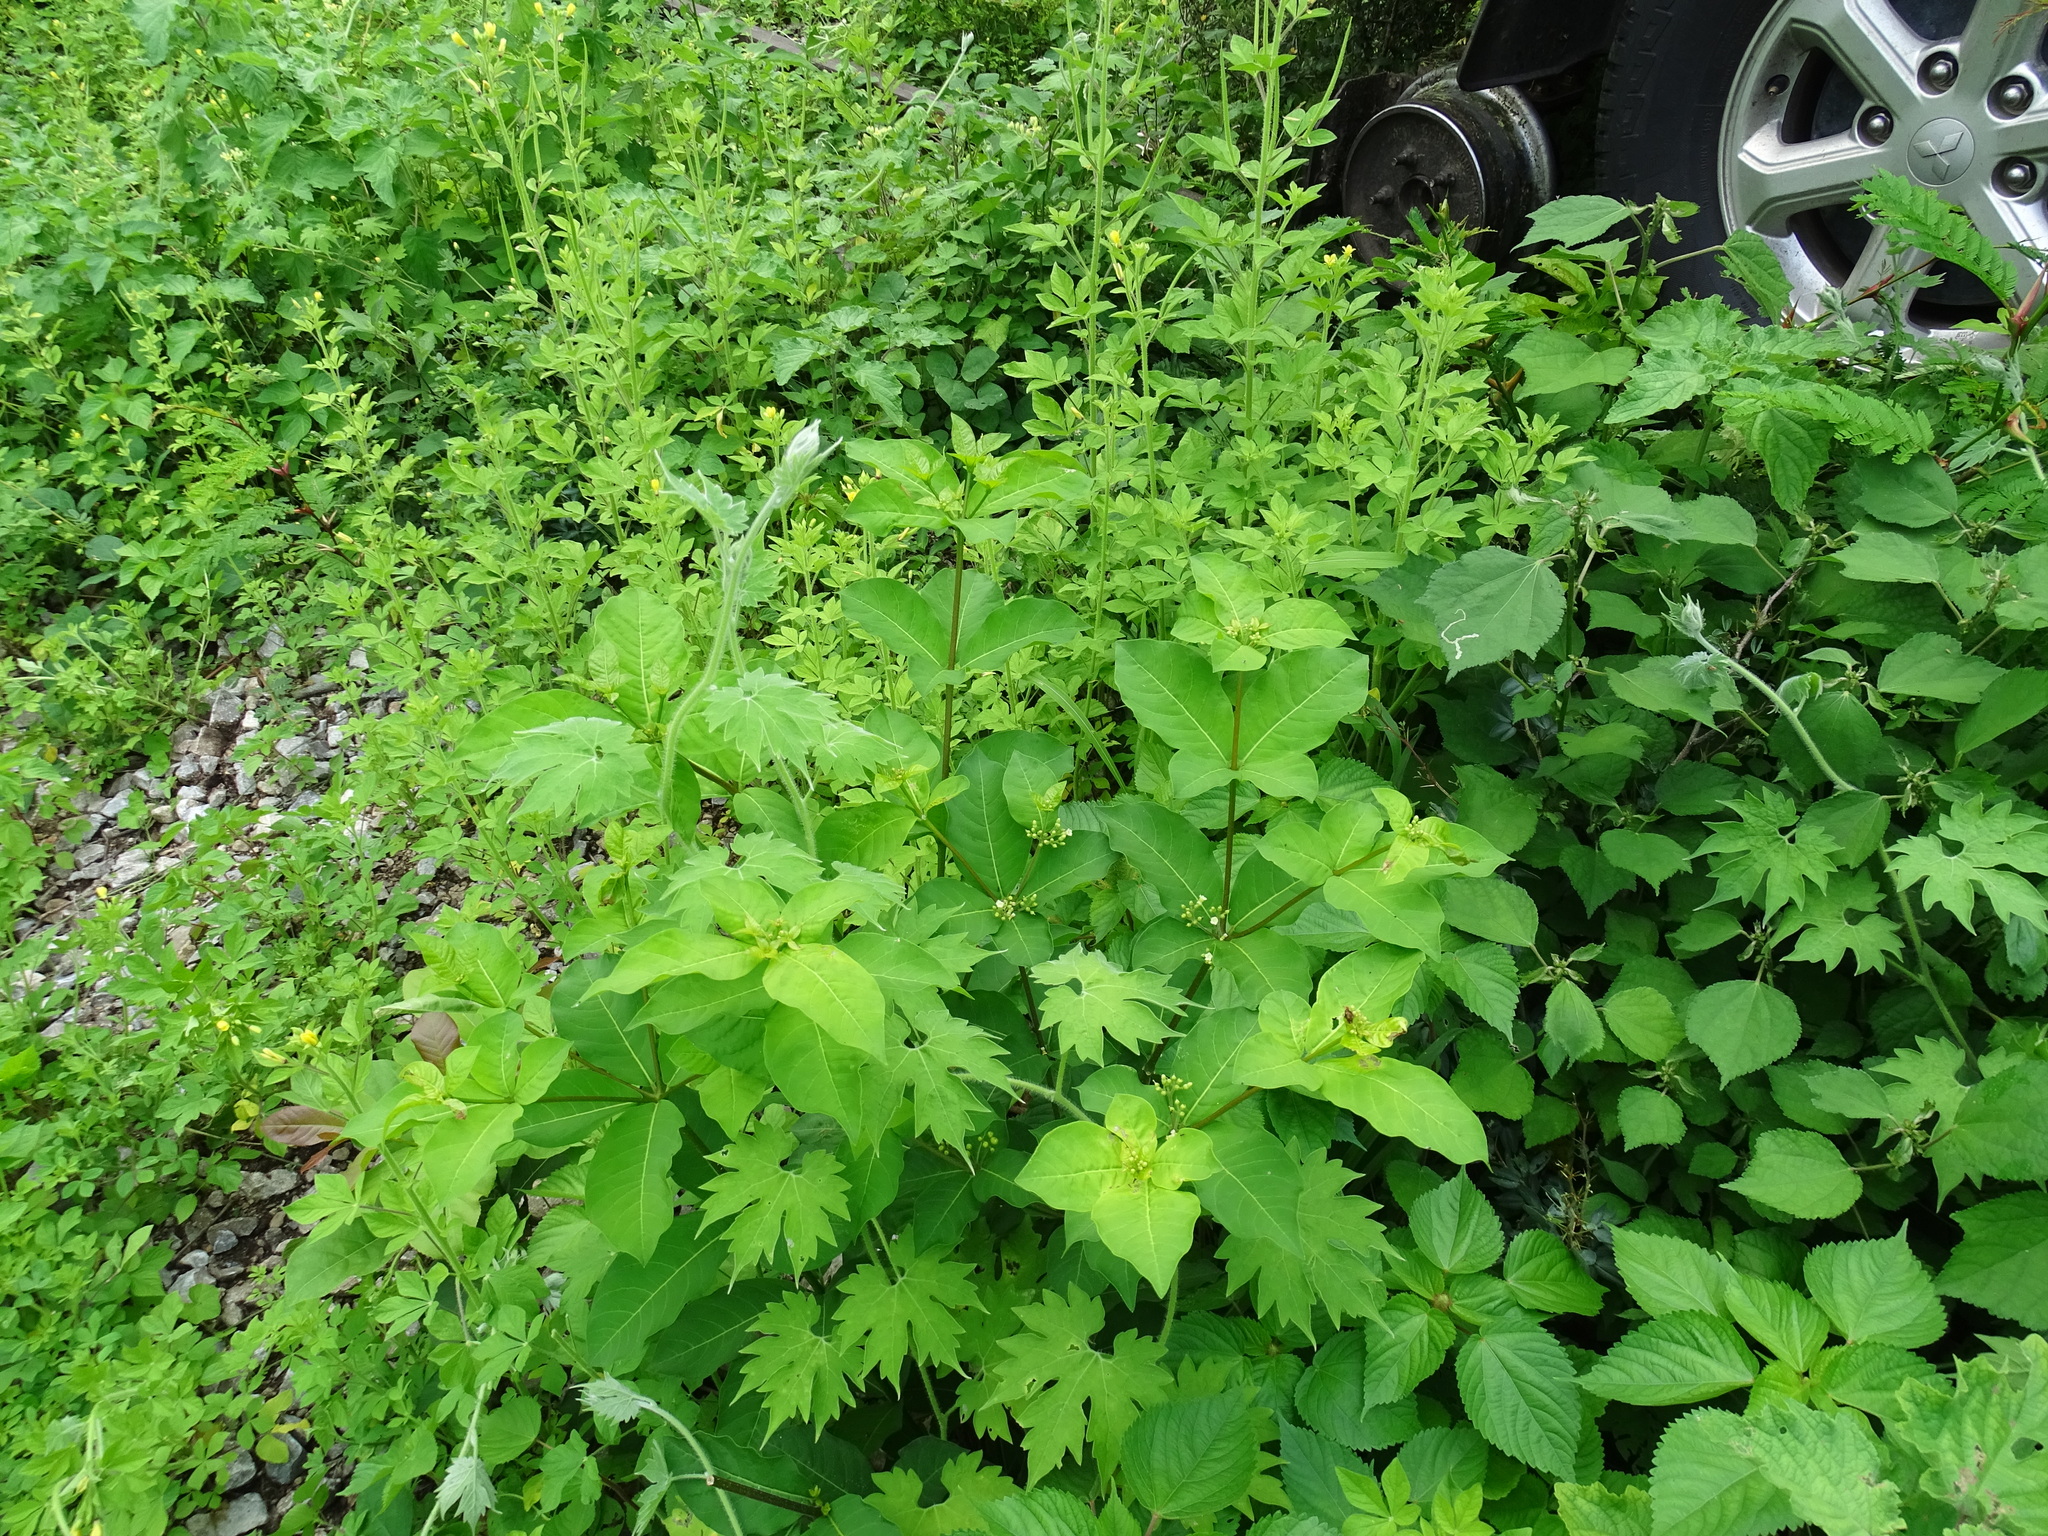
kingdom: Plantae
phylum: Tracheophyta
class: Magnoliopsida
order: Gentianales
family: Apocynaceae
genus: Rauvolfia
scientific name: Rauvolfia tetraphylla
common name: Four-leaf devil-pepper
